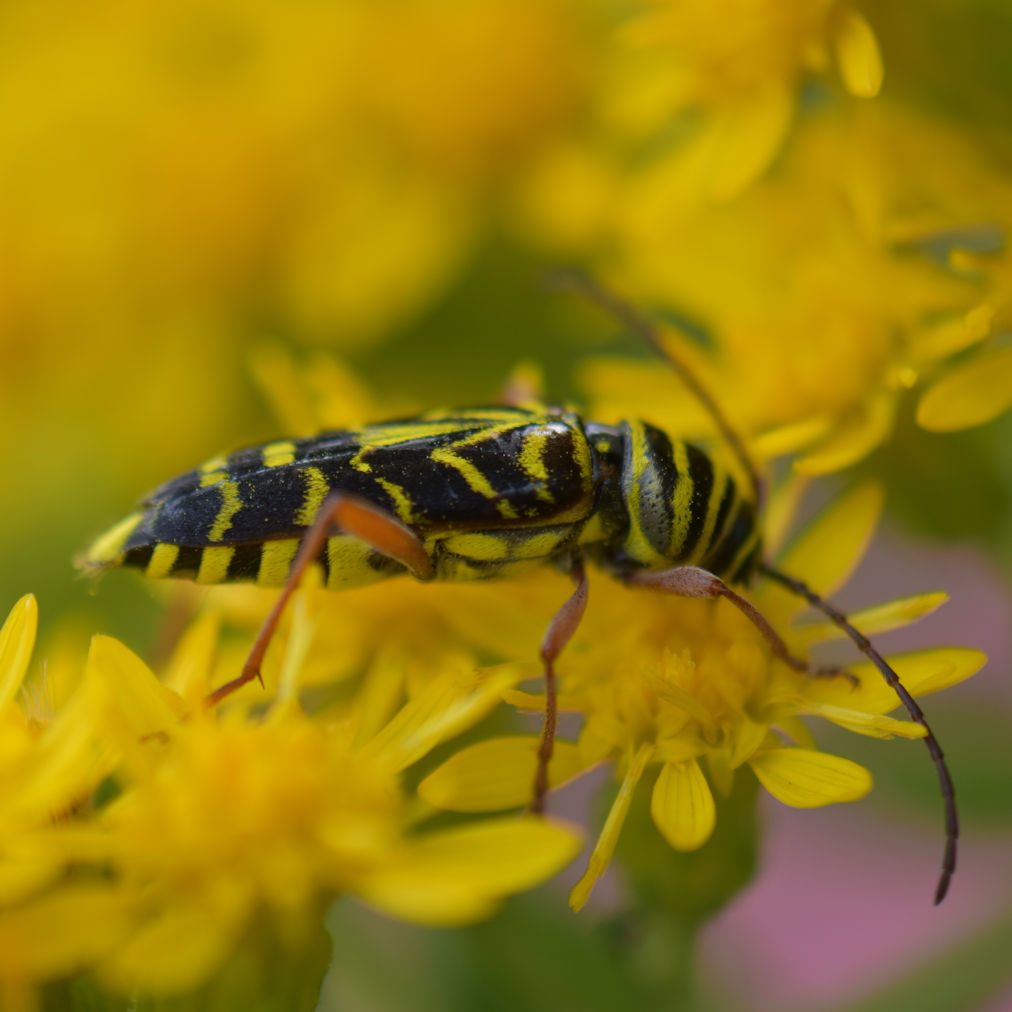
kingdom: Animalia
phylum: Arthropoda
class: Insecta
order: Coleoptera
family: Cerambycidae
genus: Megacyllene
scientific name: Megacyllene robiniae
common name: Locust borer
